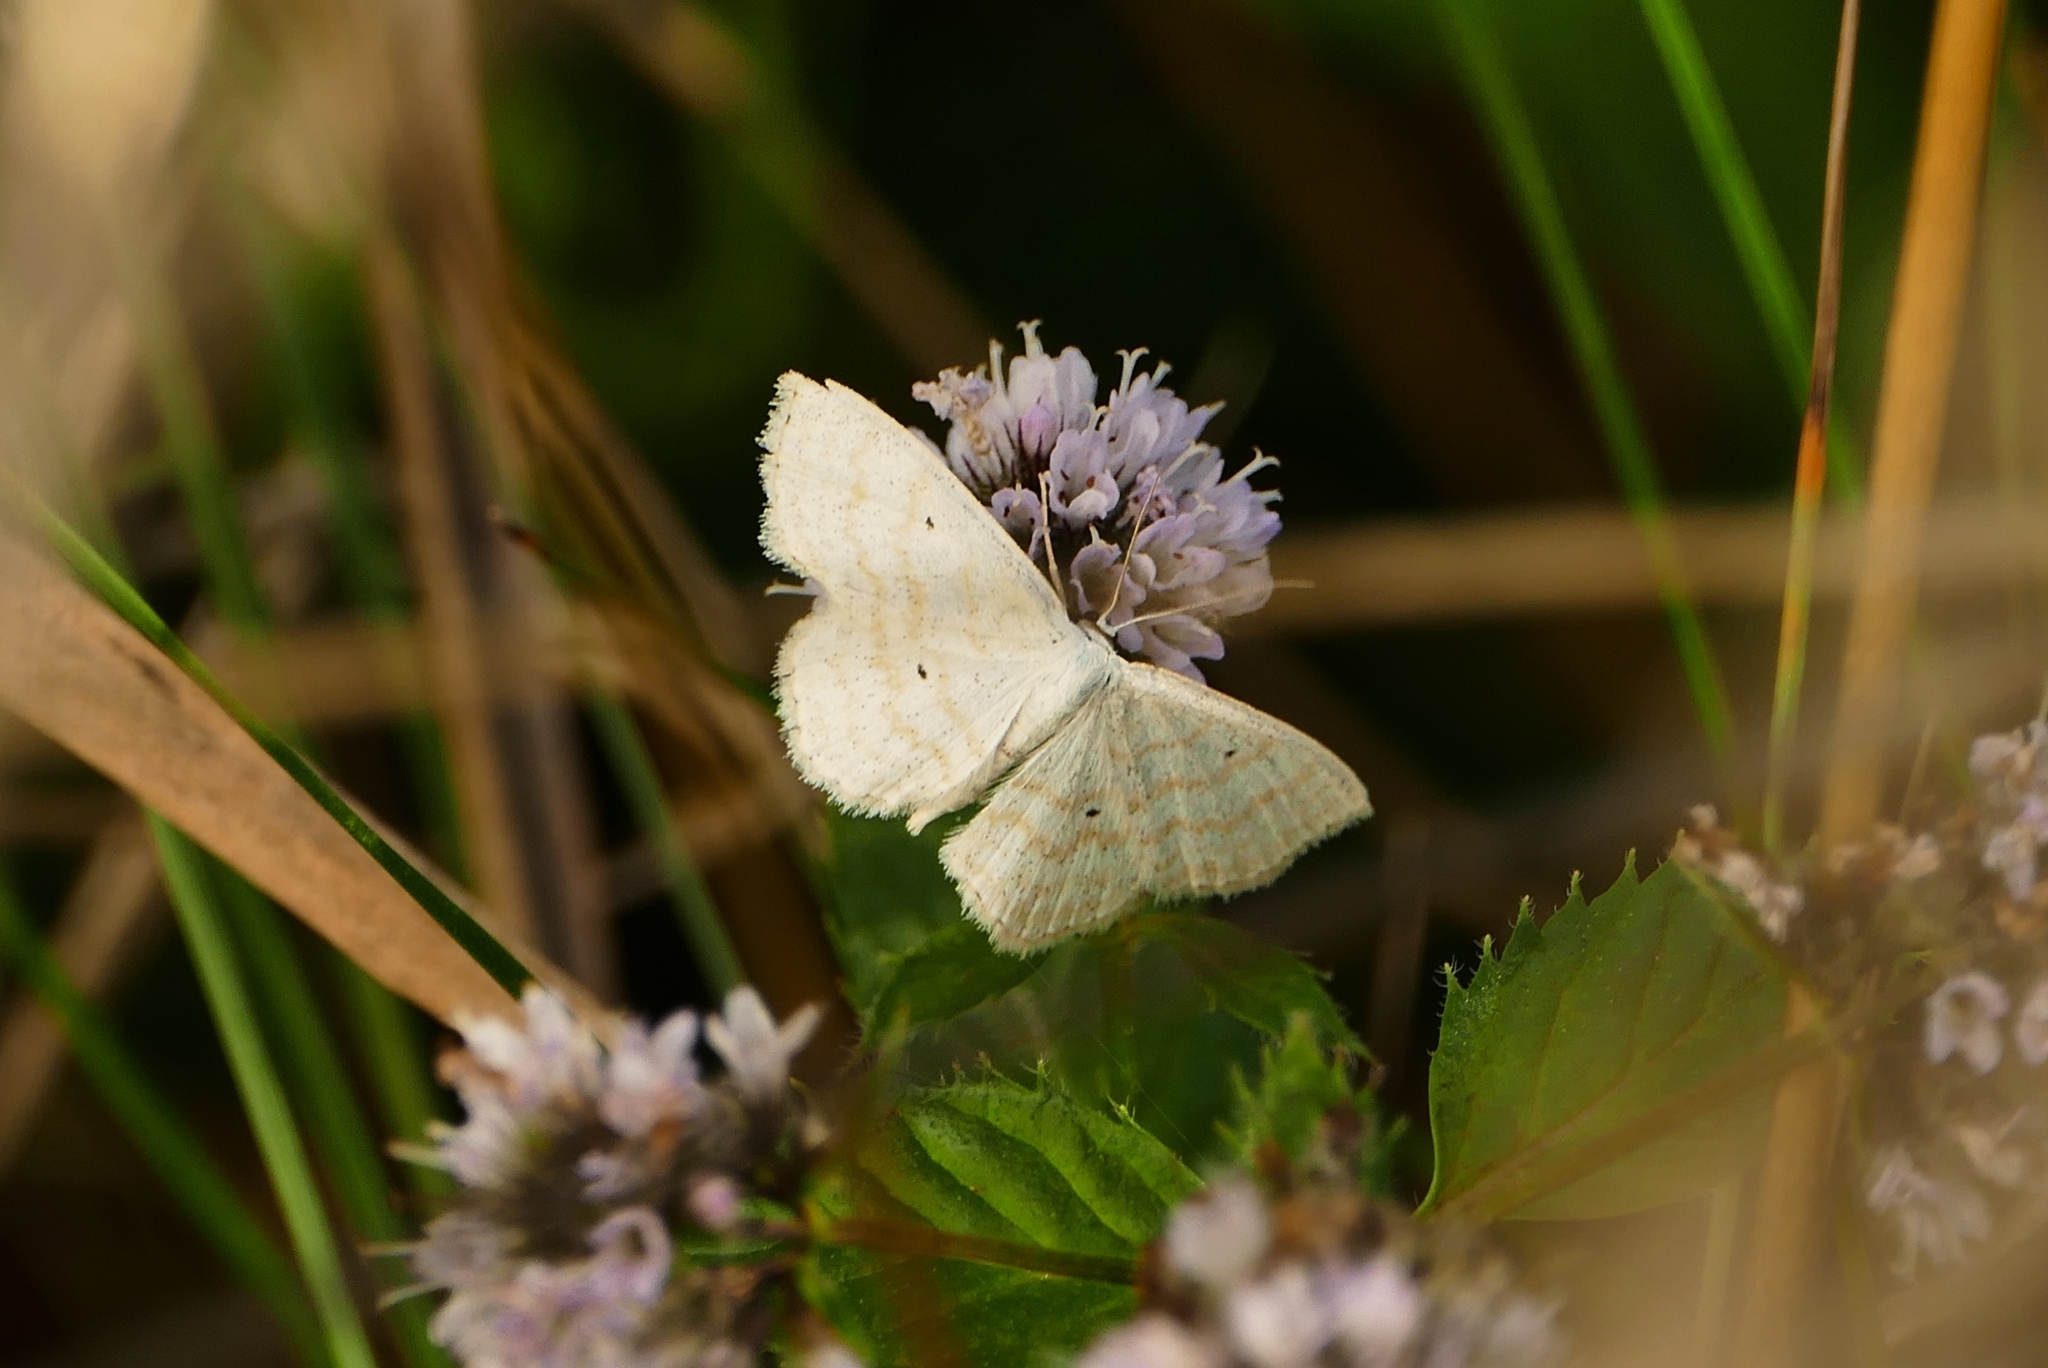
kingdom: Animalia
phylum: Arthropoda
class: Insecta
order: Lepidoptera
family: Geometridae
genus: Scopula
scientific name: Scopula immutata
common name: Lesser cream wave
